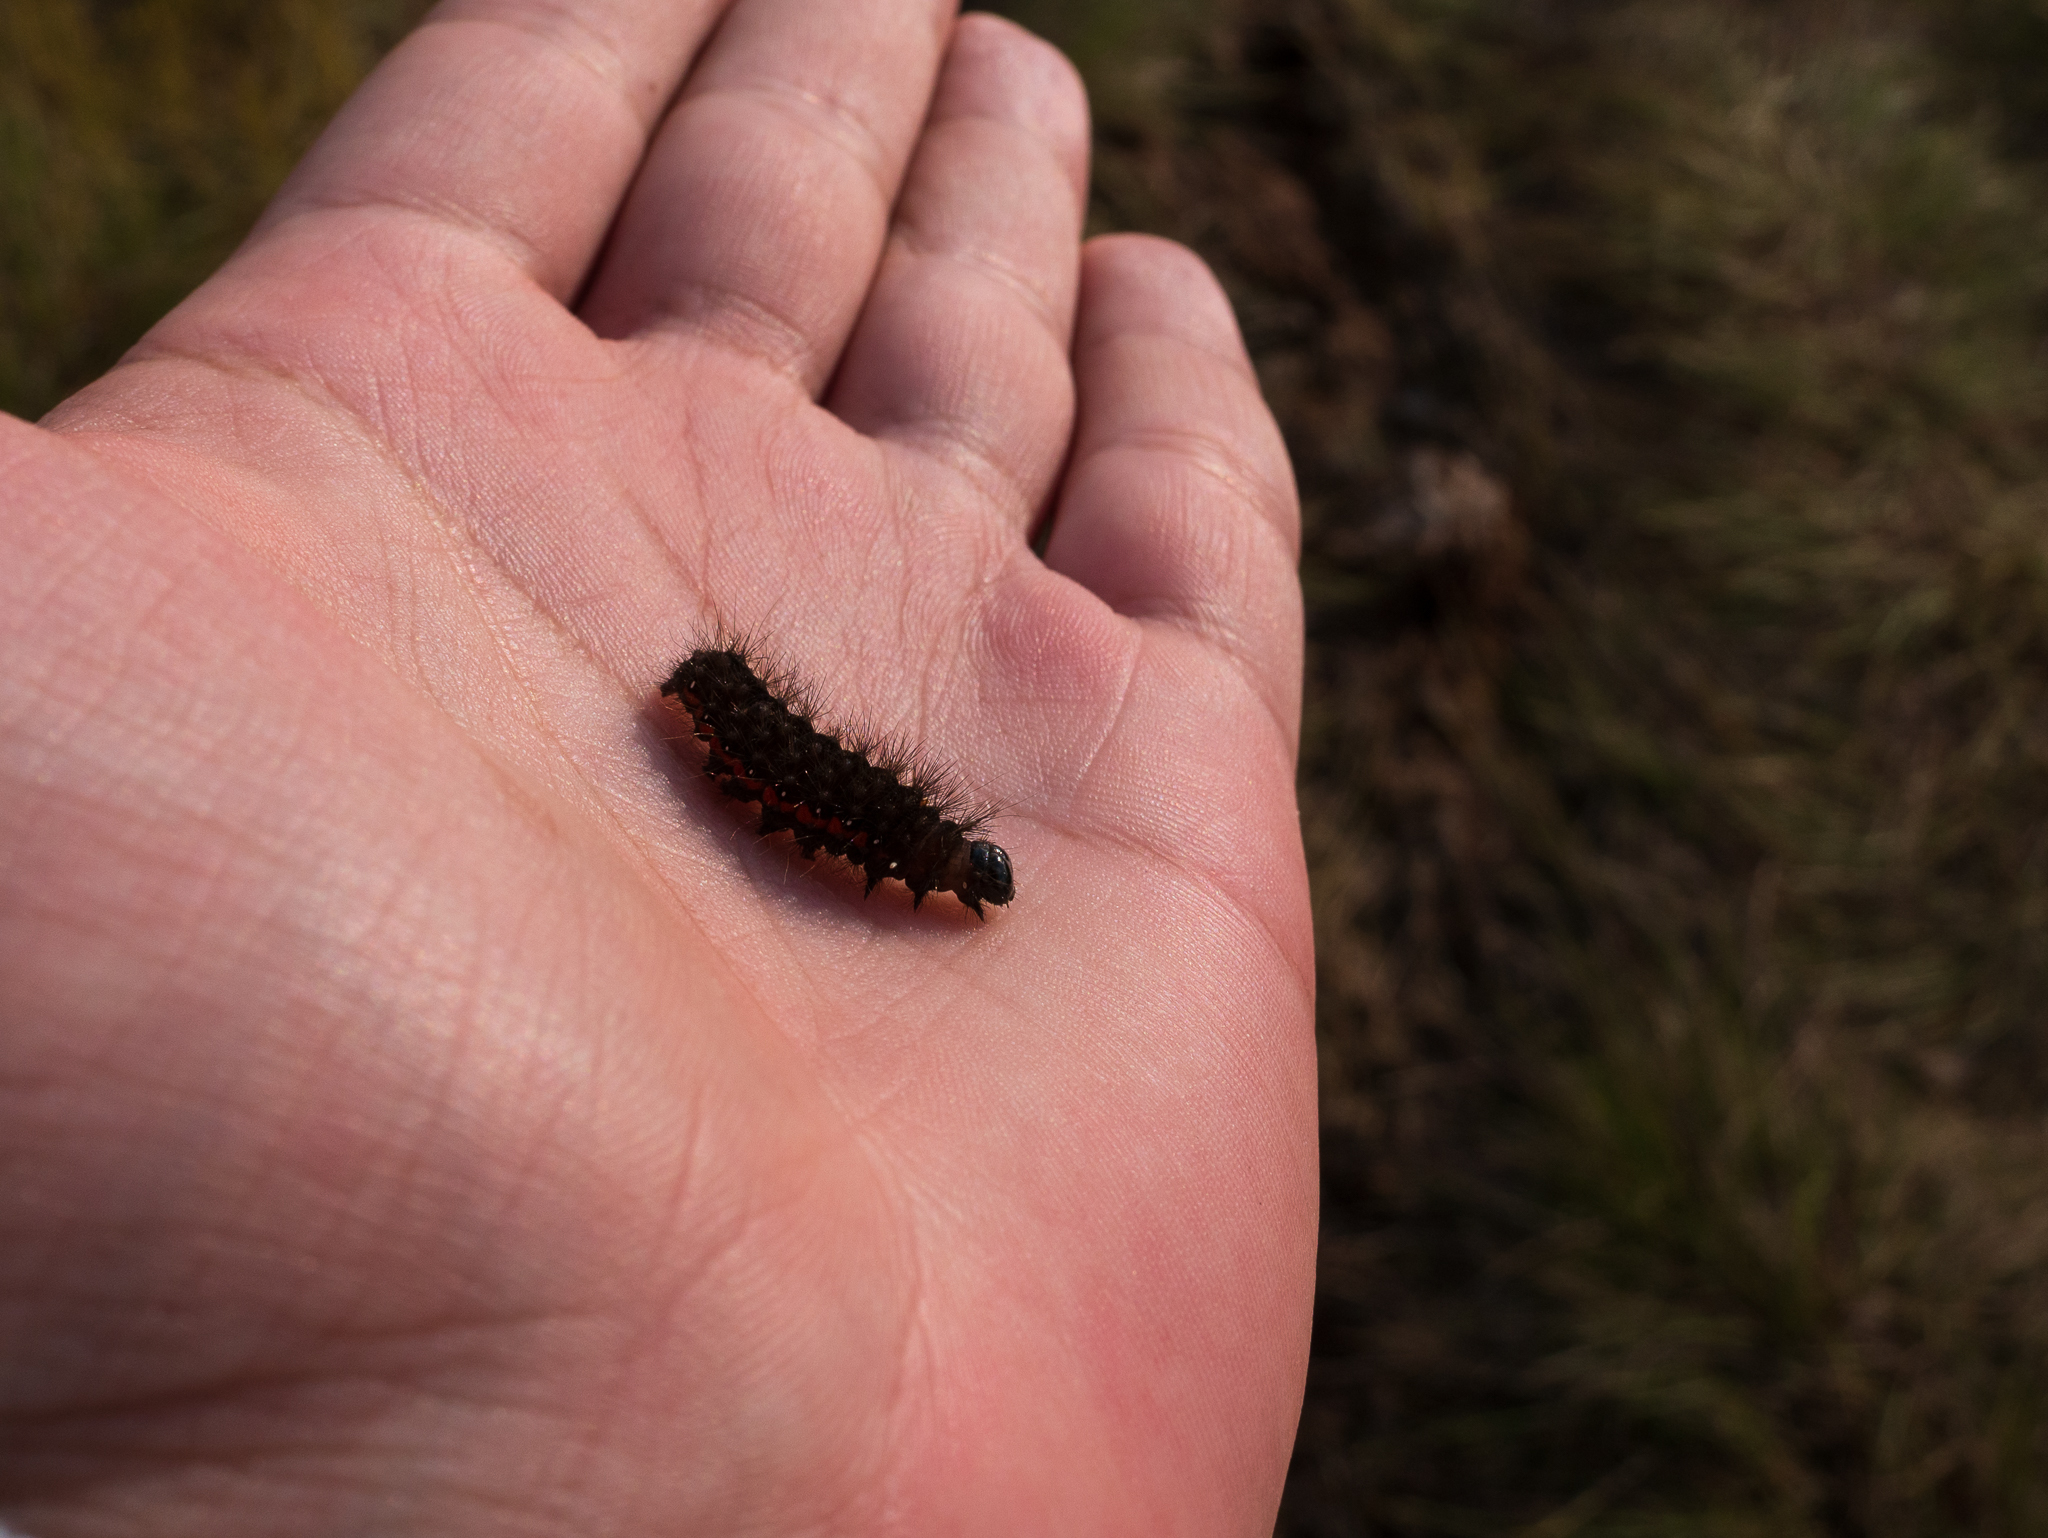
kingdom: Animalia
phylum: Arthropoda
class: Insecta
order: Lepidoptera
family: Noctuidae
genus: Acronicta
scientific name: Acronicta menyanthidis
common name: Light knot grass
